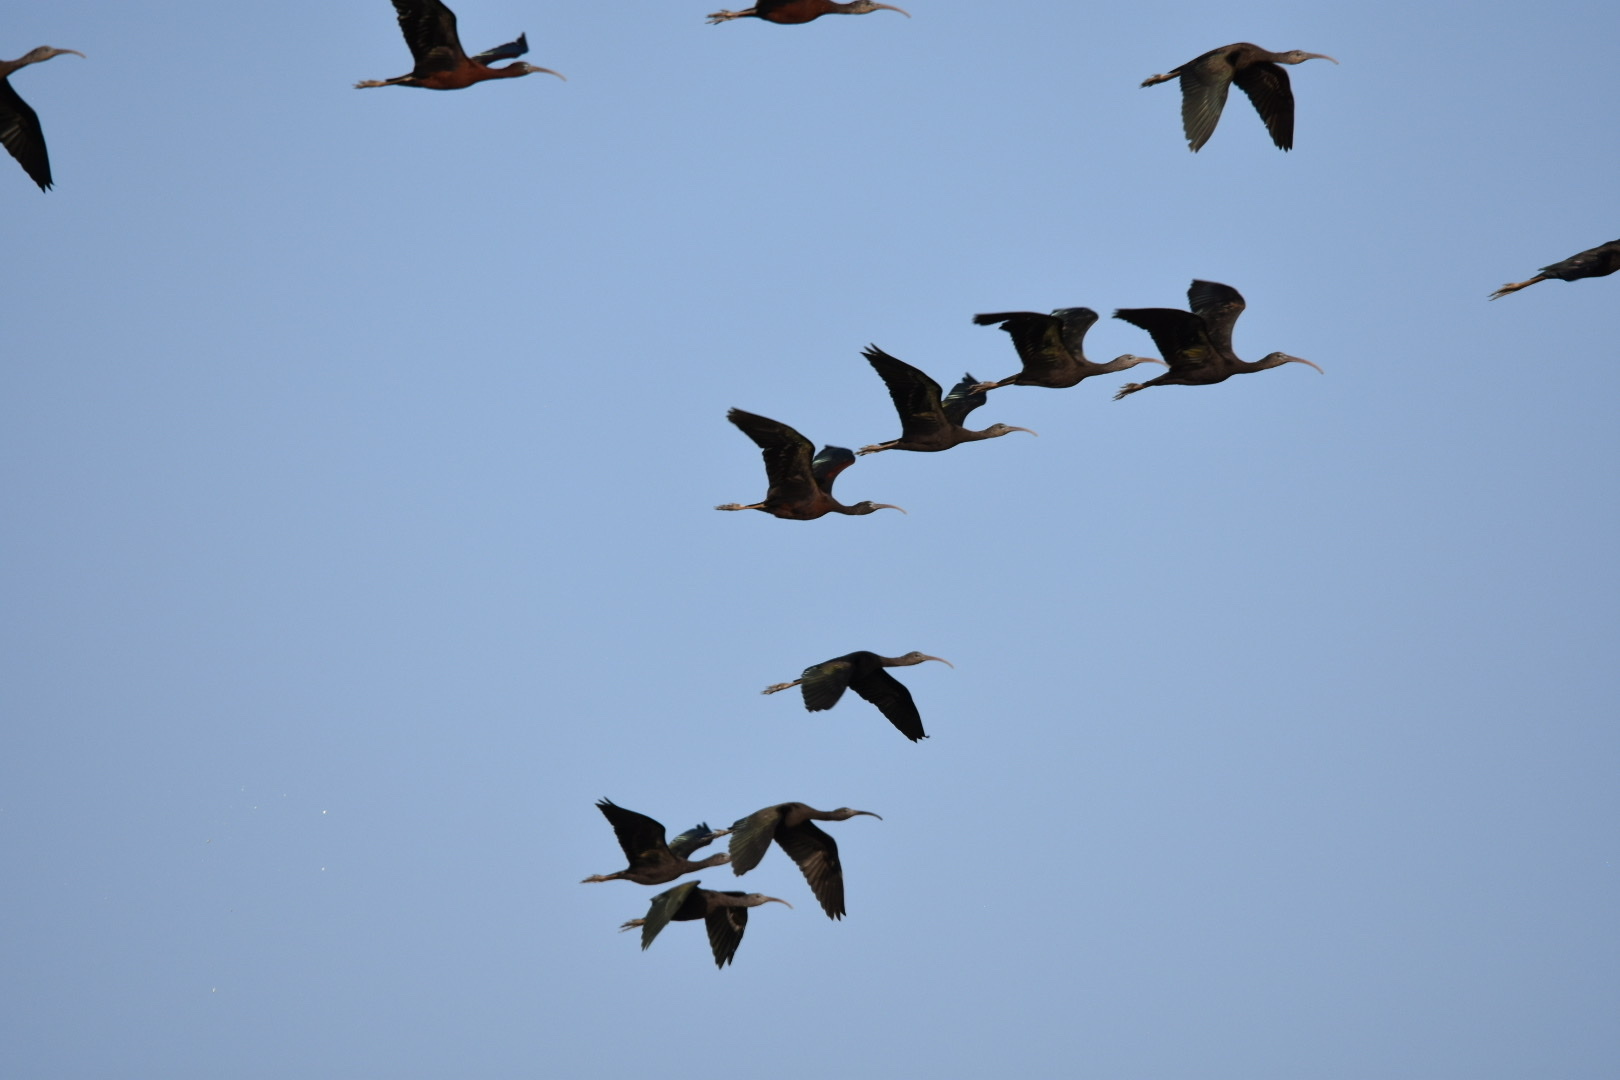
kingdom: Animalia
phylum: Chordata
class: Aves
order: Pelecaniformes
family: Threskiornithidae
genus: Plegadis
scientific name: Plegadis falcinellus
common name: Glossy ibis
